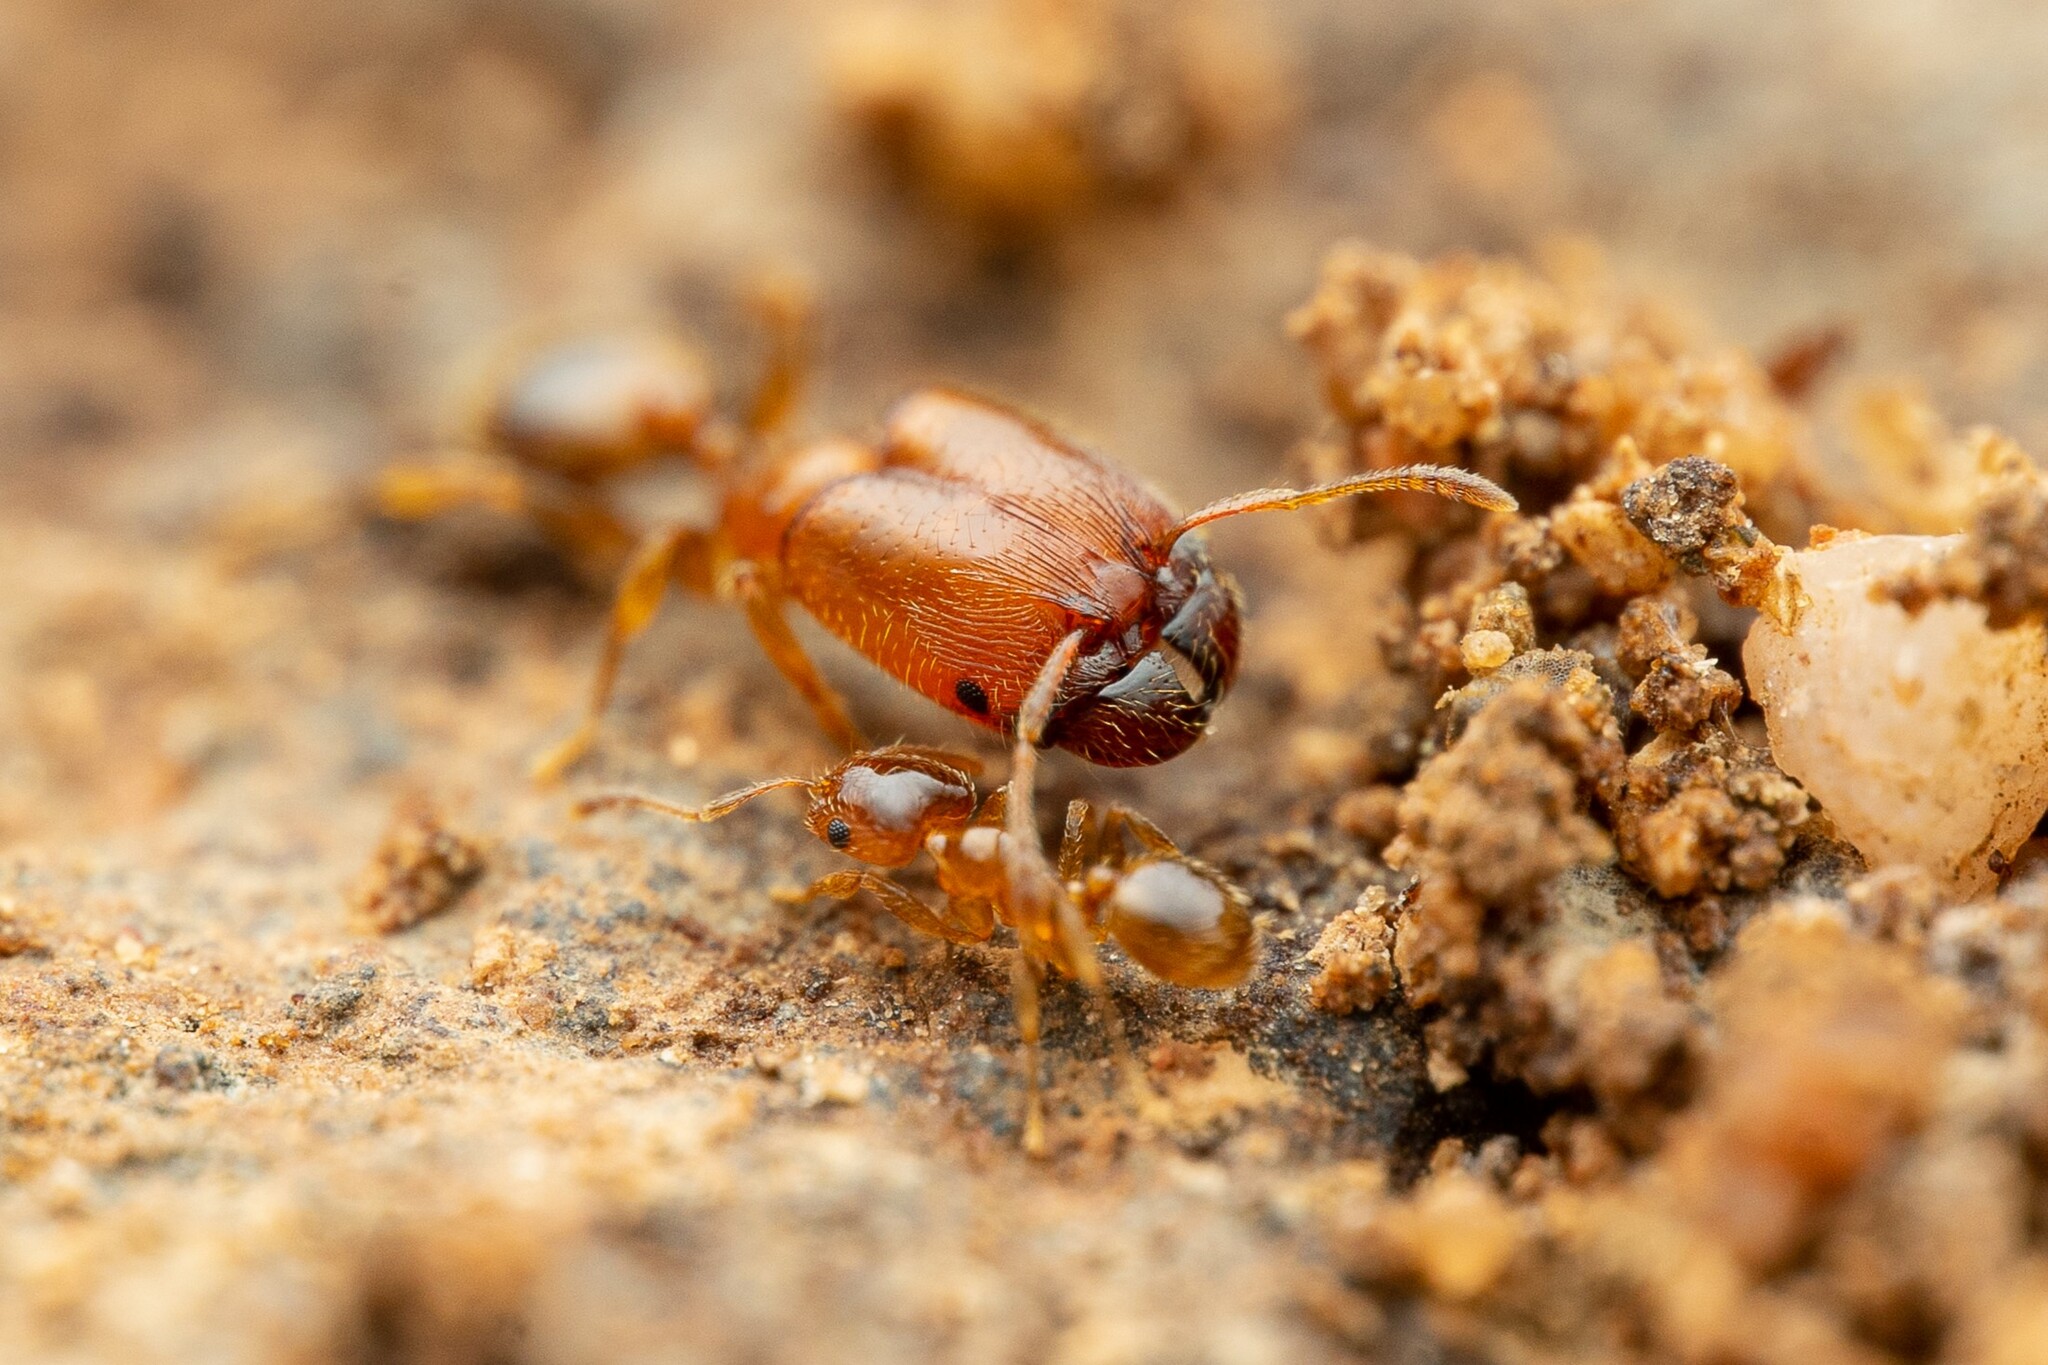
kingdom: Animalia
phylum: Arthropoda
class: Insecta
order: Hymenoptera
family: Formicidae
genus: Pheidole
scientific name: Pheidole
